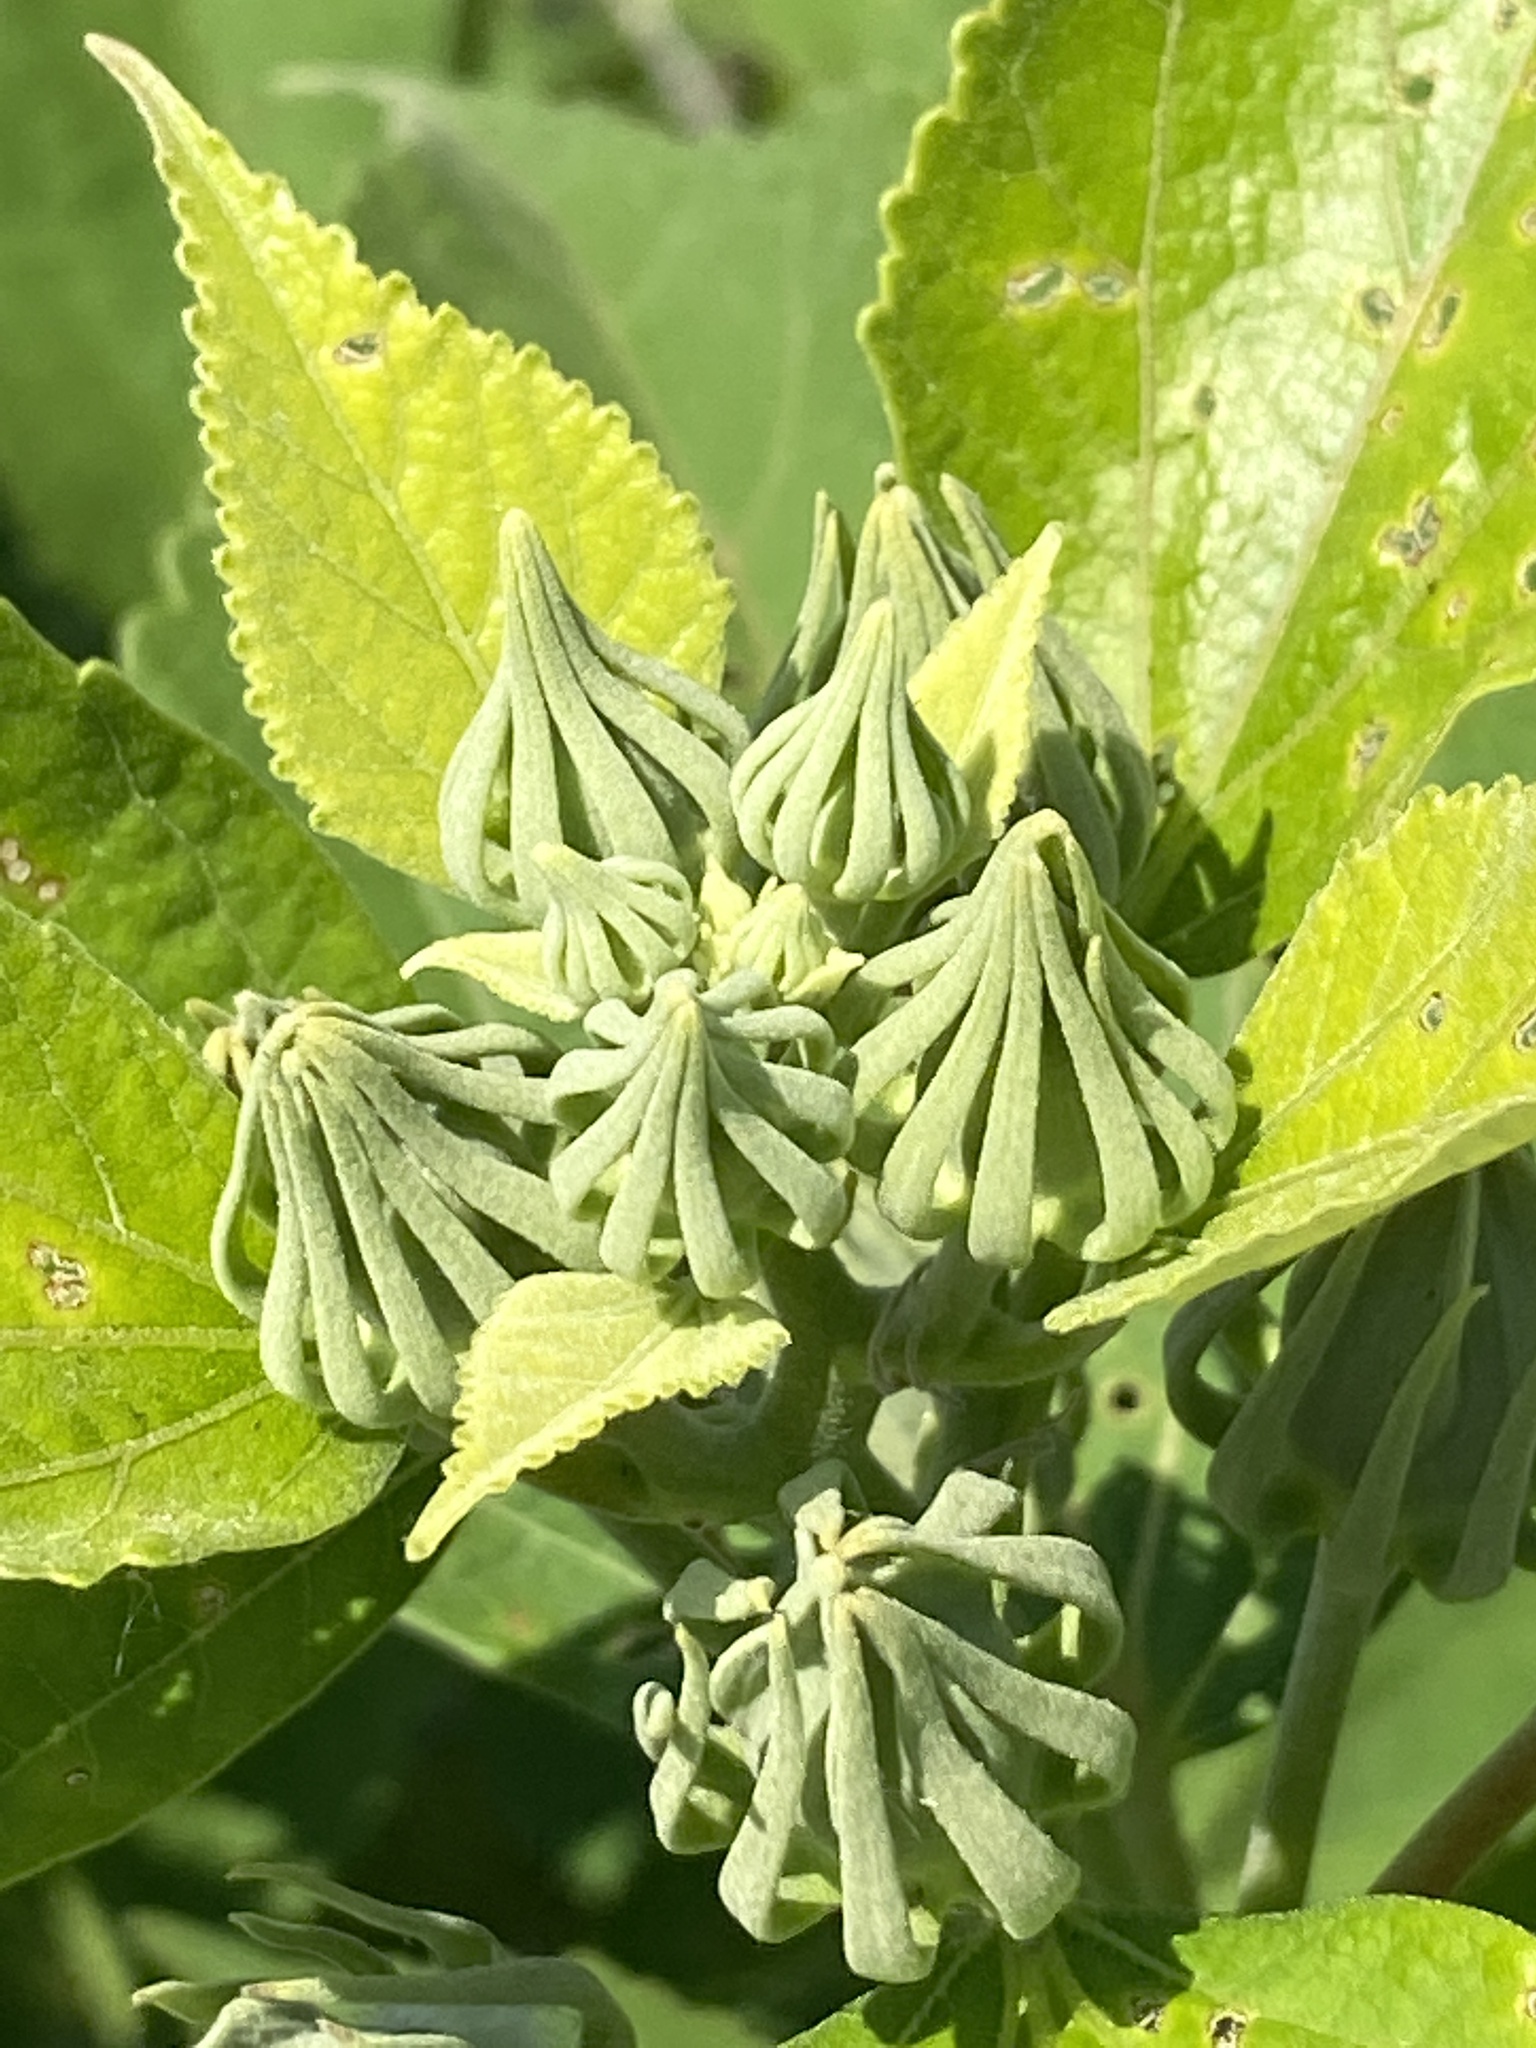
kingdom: Plantae
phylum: Tracheophyta
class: Magnoliopsida
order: Malvales
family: Malvaceae
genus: Hibiscus
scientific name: Hibiscus moscheutos
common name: Common rose-mallow
